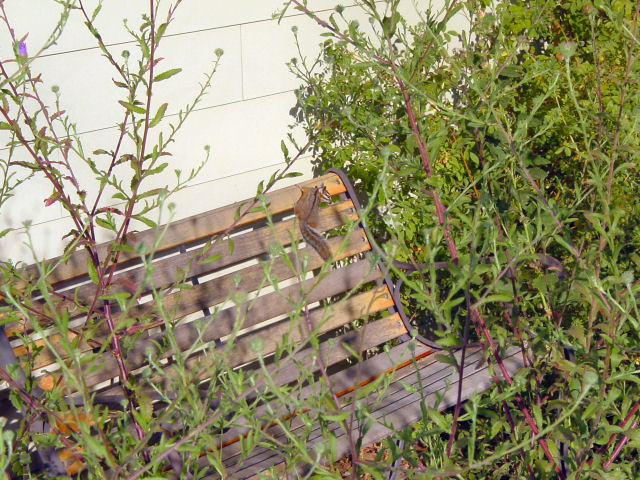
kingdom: Animalia
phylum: Chordata
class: Mammalia
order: Rodentia
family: Sciuridae
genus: Tamias
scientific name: Tamias dorsalis
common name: Cliff chipmunk
